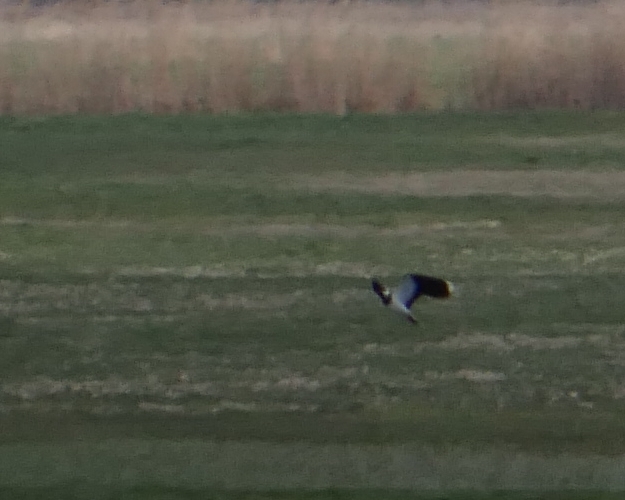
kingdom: Animalia
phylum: Chordata
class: Aves
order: Charadriiformes
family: Charadriidae
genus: Vanellus
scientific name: Vanellus vanellus
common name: Northern lapwing
